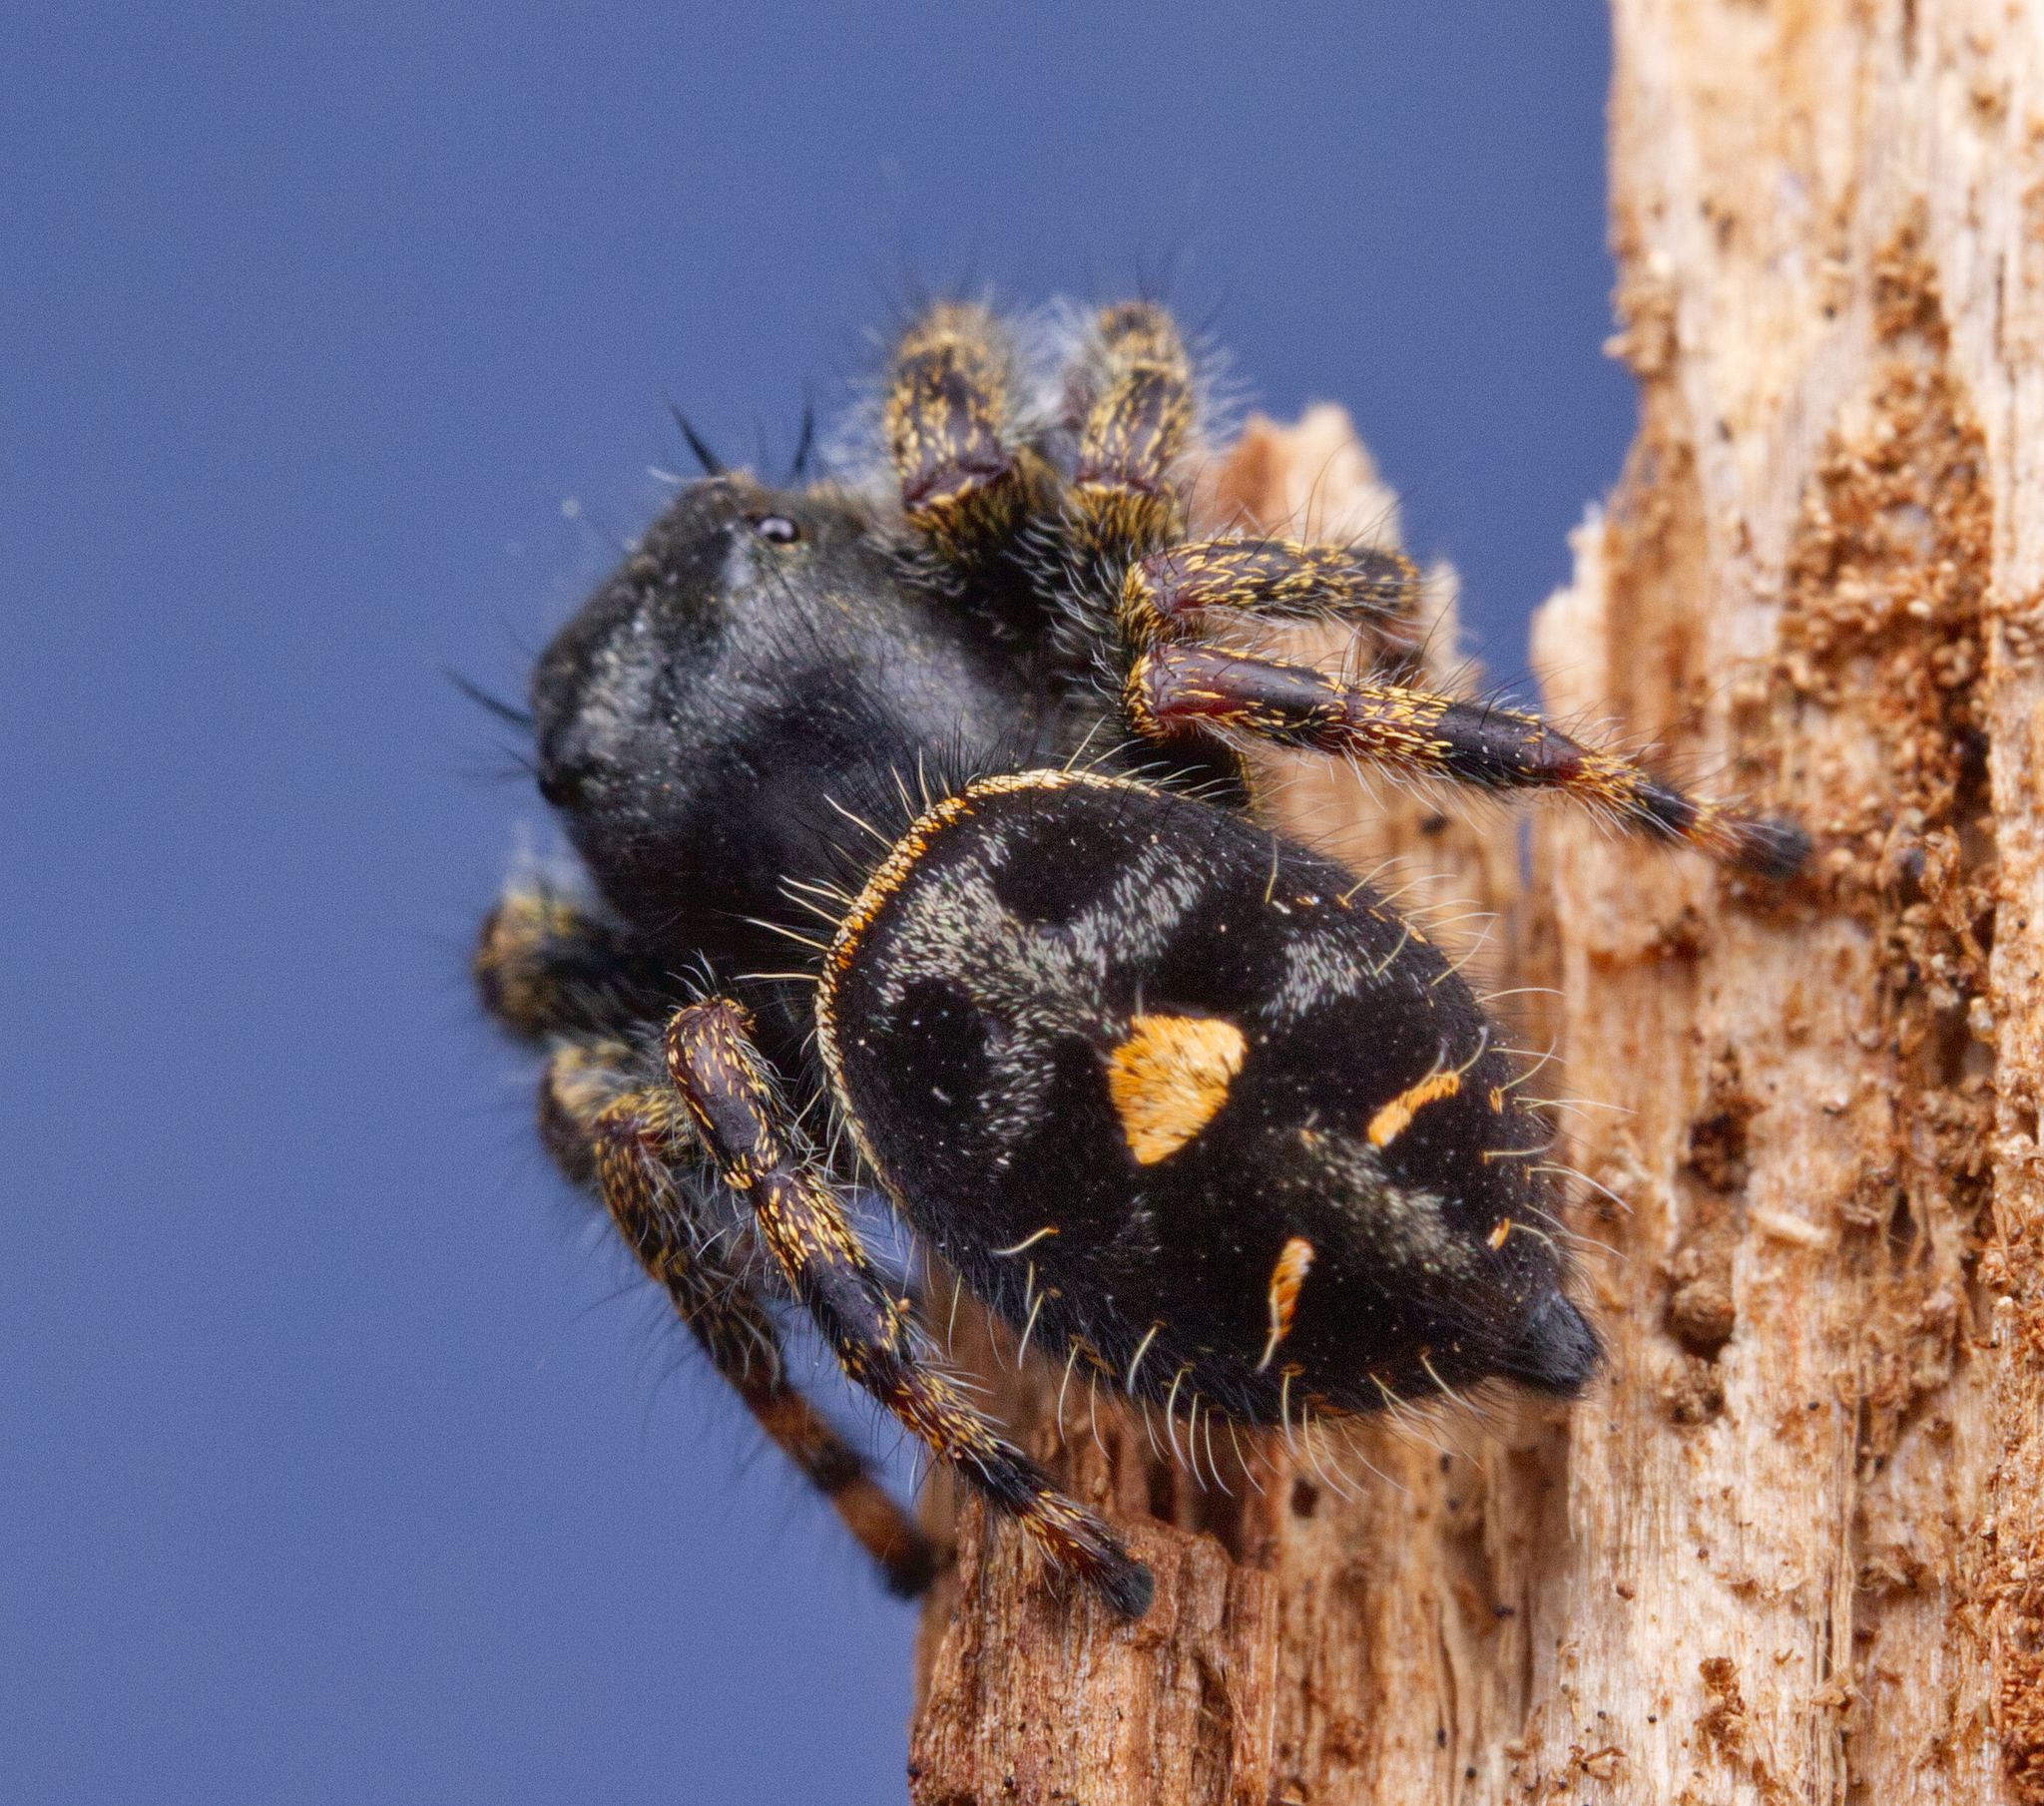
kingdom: Animalia
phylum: Arthropoda
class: Arachnida
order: Araneae
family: Salticidae
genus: Phidippus
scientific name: Phidippus audax
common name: Bold jumper
